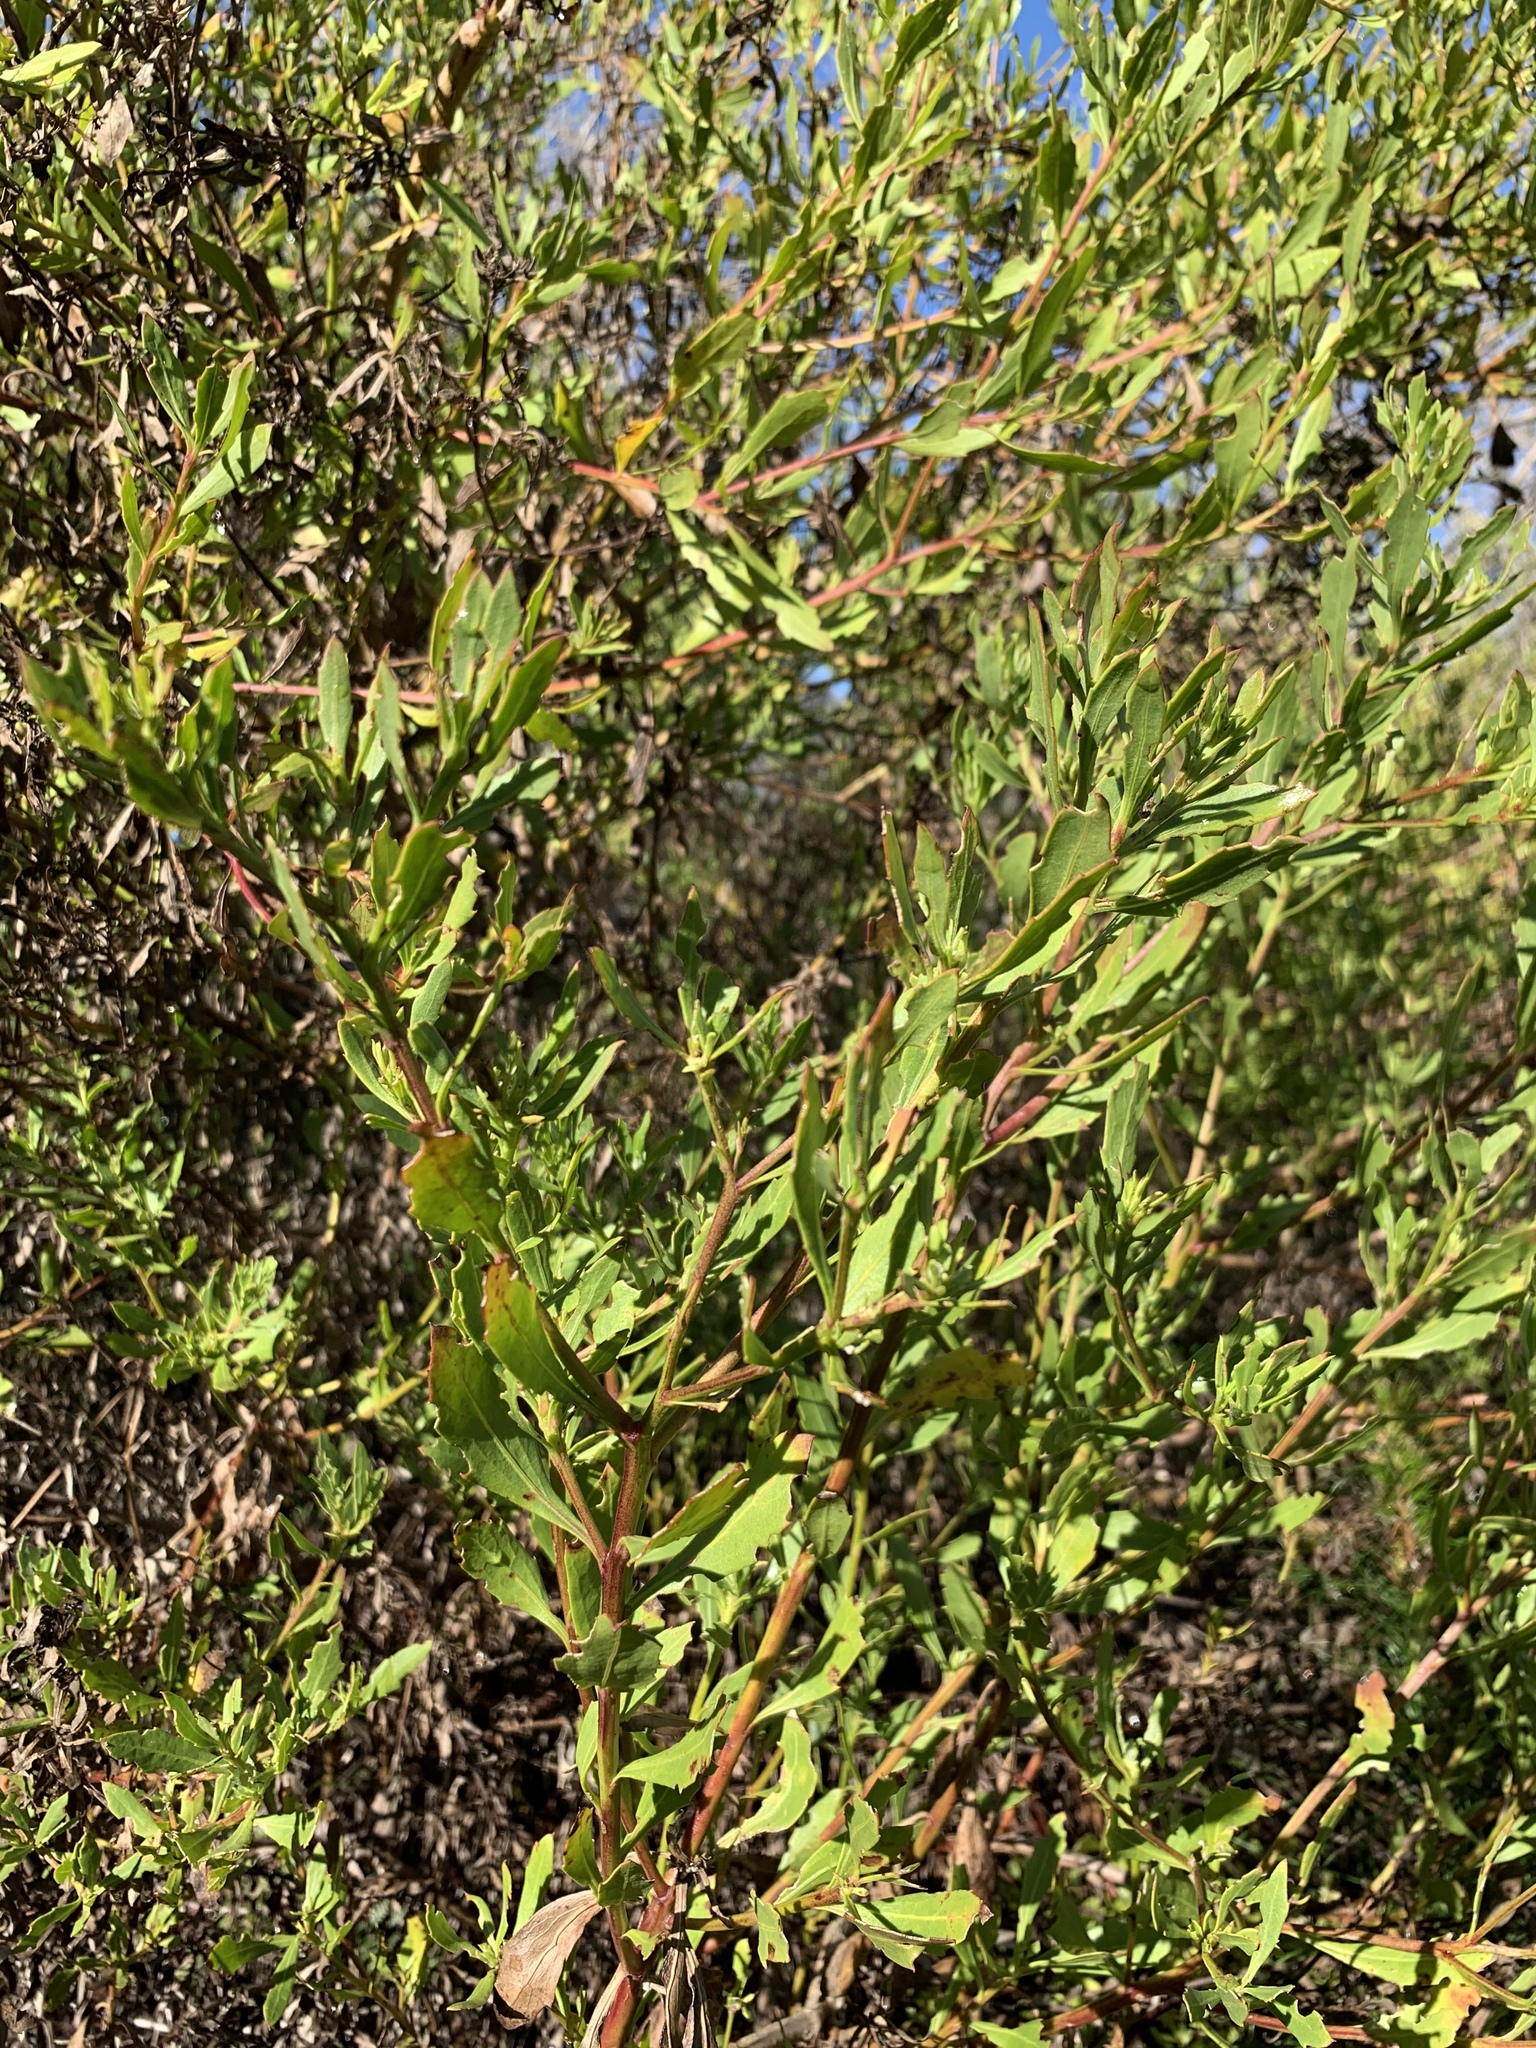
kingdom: Plantae
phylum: Tracheophyta
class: Magnoliopsida
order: Asterales
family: Asteraceae
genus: Osteospermum
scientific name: Osteospermum moniliferum
